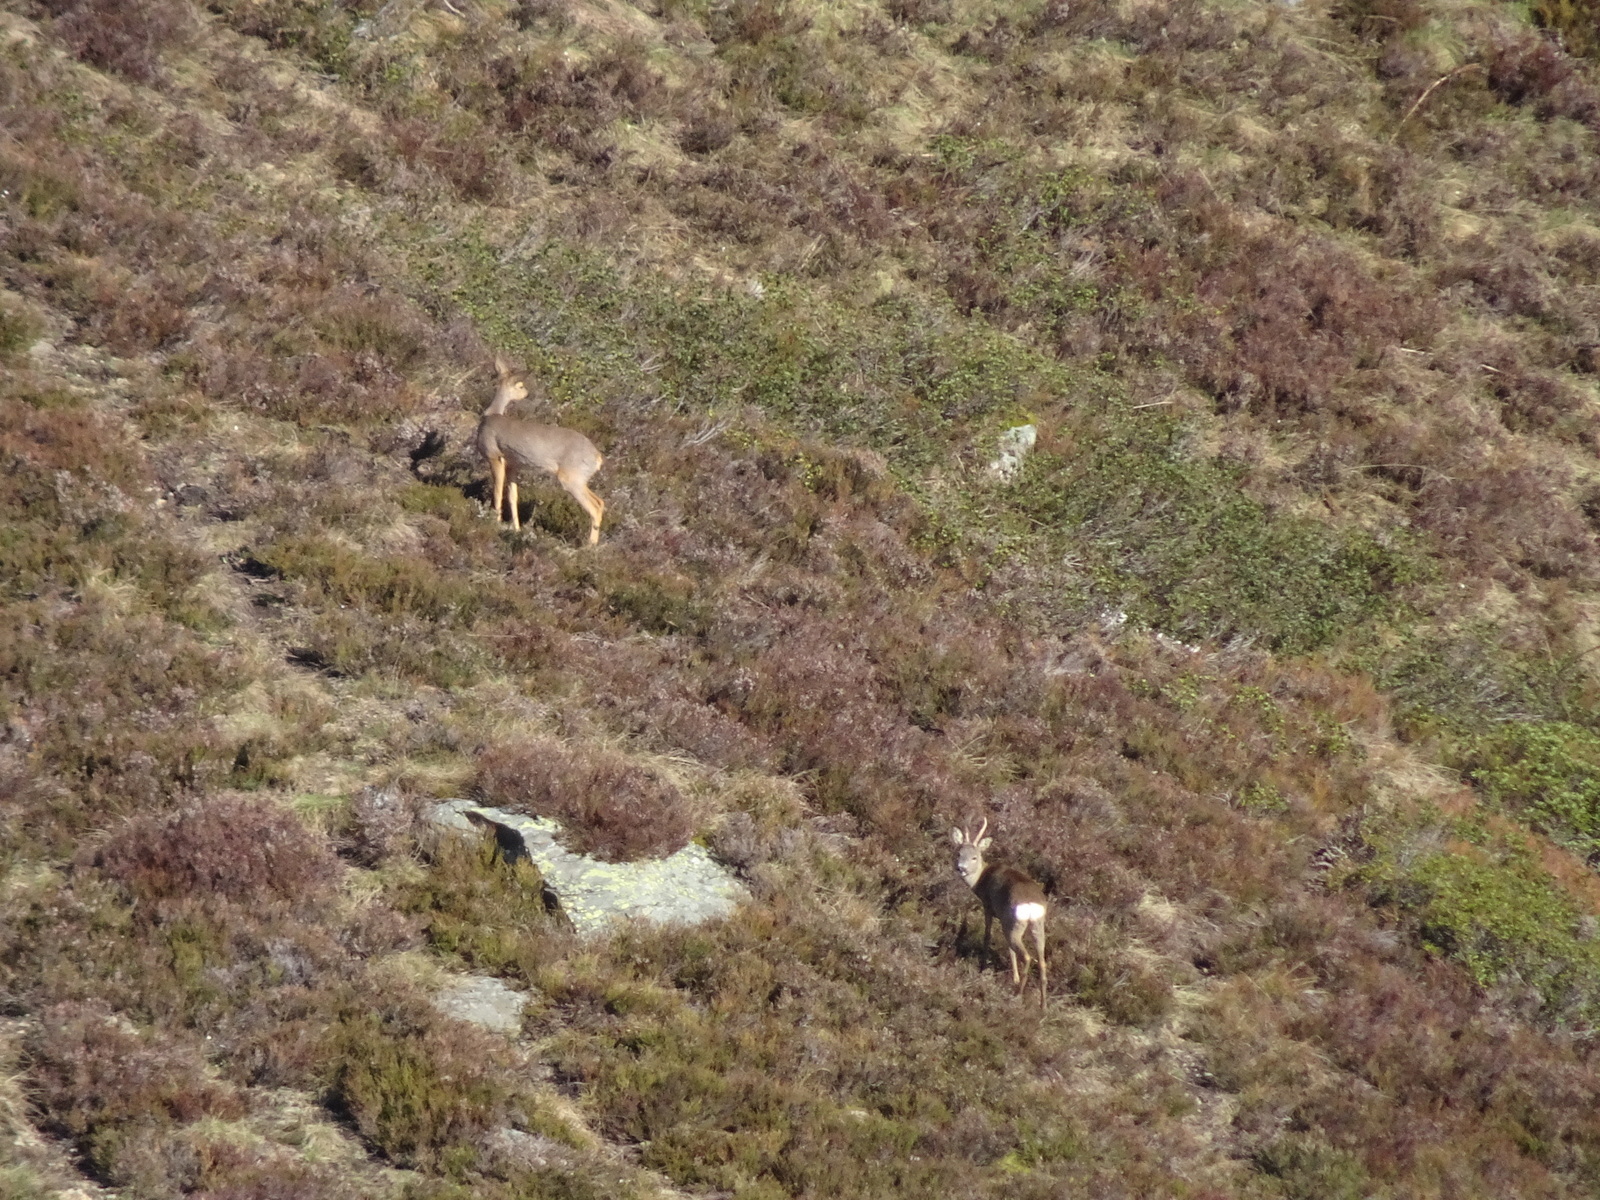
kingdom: Animalia
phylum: Chordata
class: Mammalia
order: Artiodactyla
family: Cervidae
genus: Capreolus
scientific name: Capreolus capreolus
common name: Western roe deer
